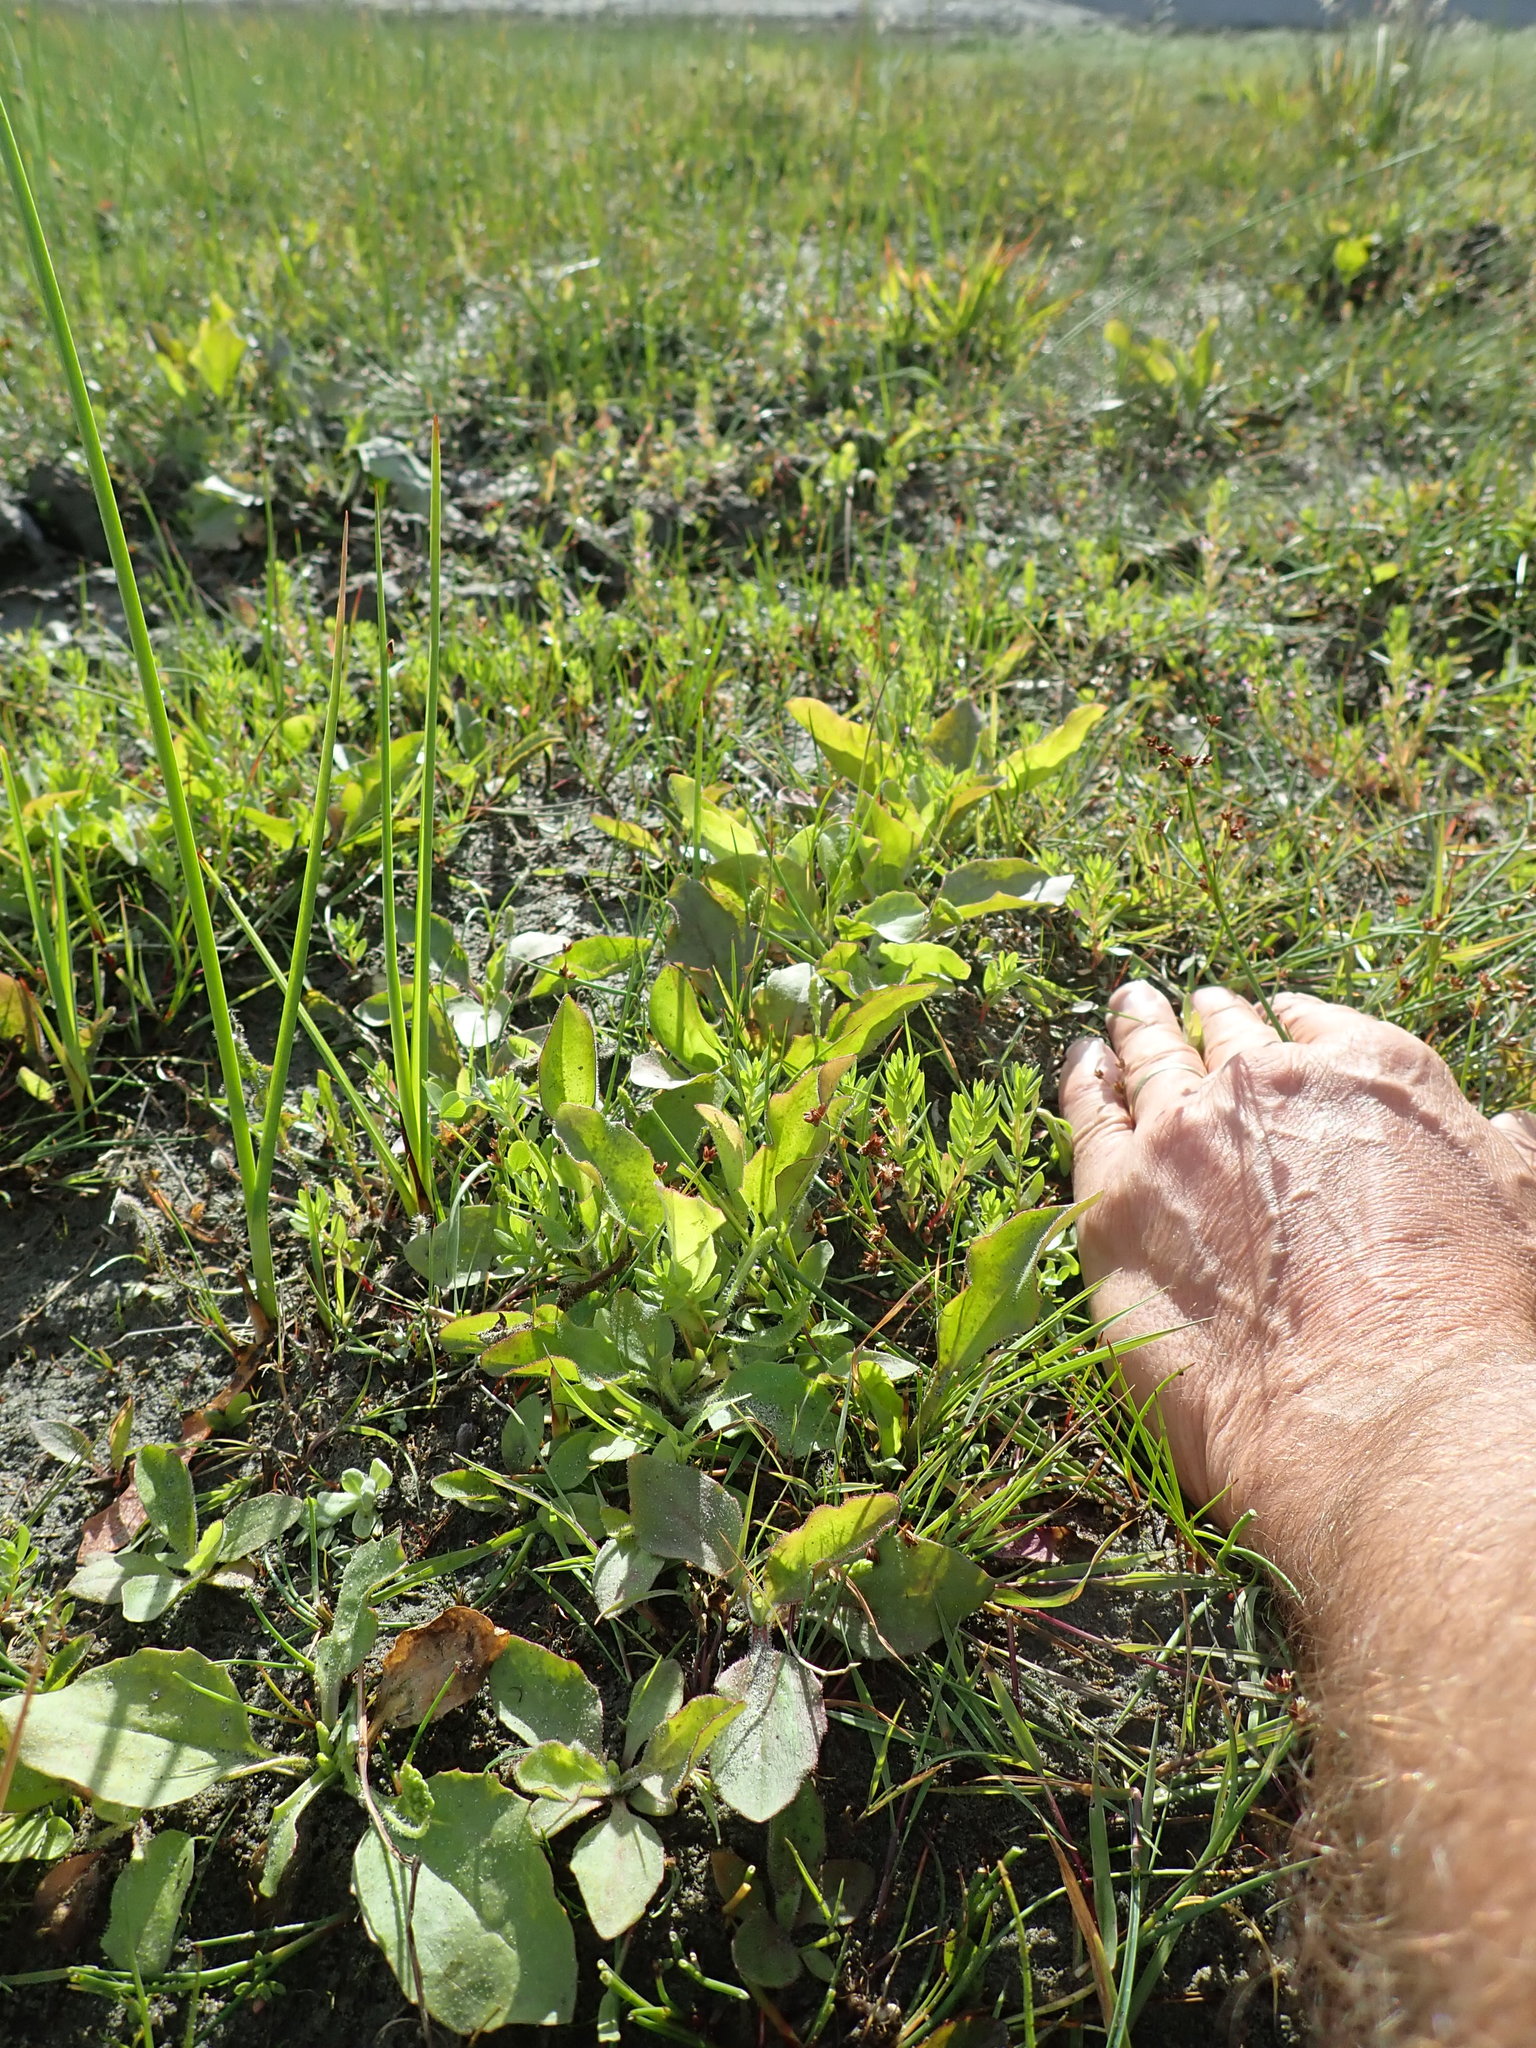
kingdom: Plantae
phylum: Tracheophyta
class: Magnoliopsida
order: Lamiales
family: Plantaginaceae
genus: Plantago
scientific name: Plantago australis
